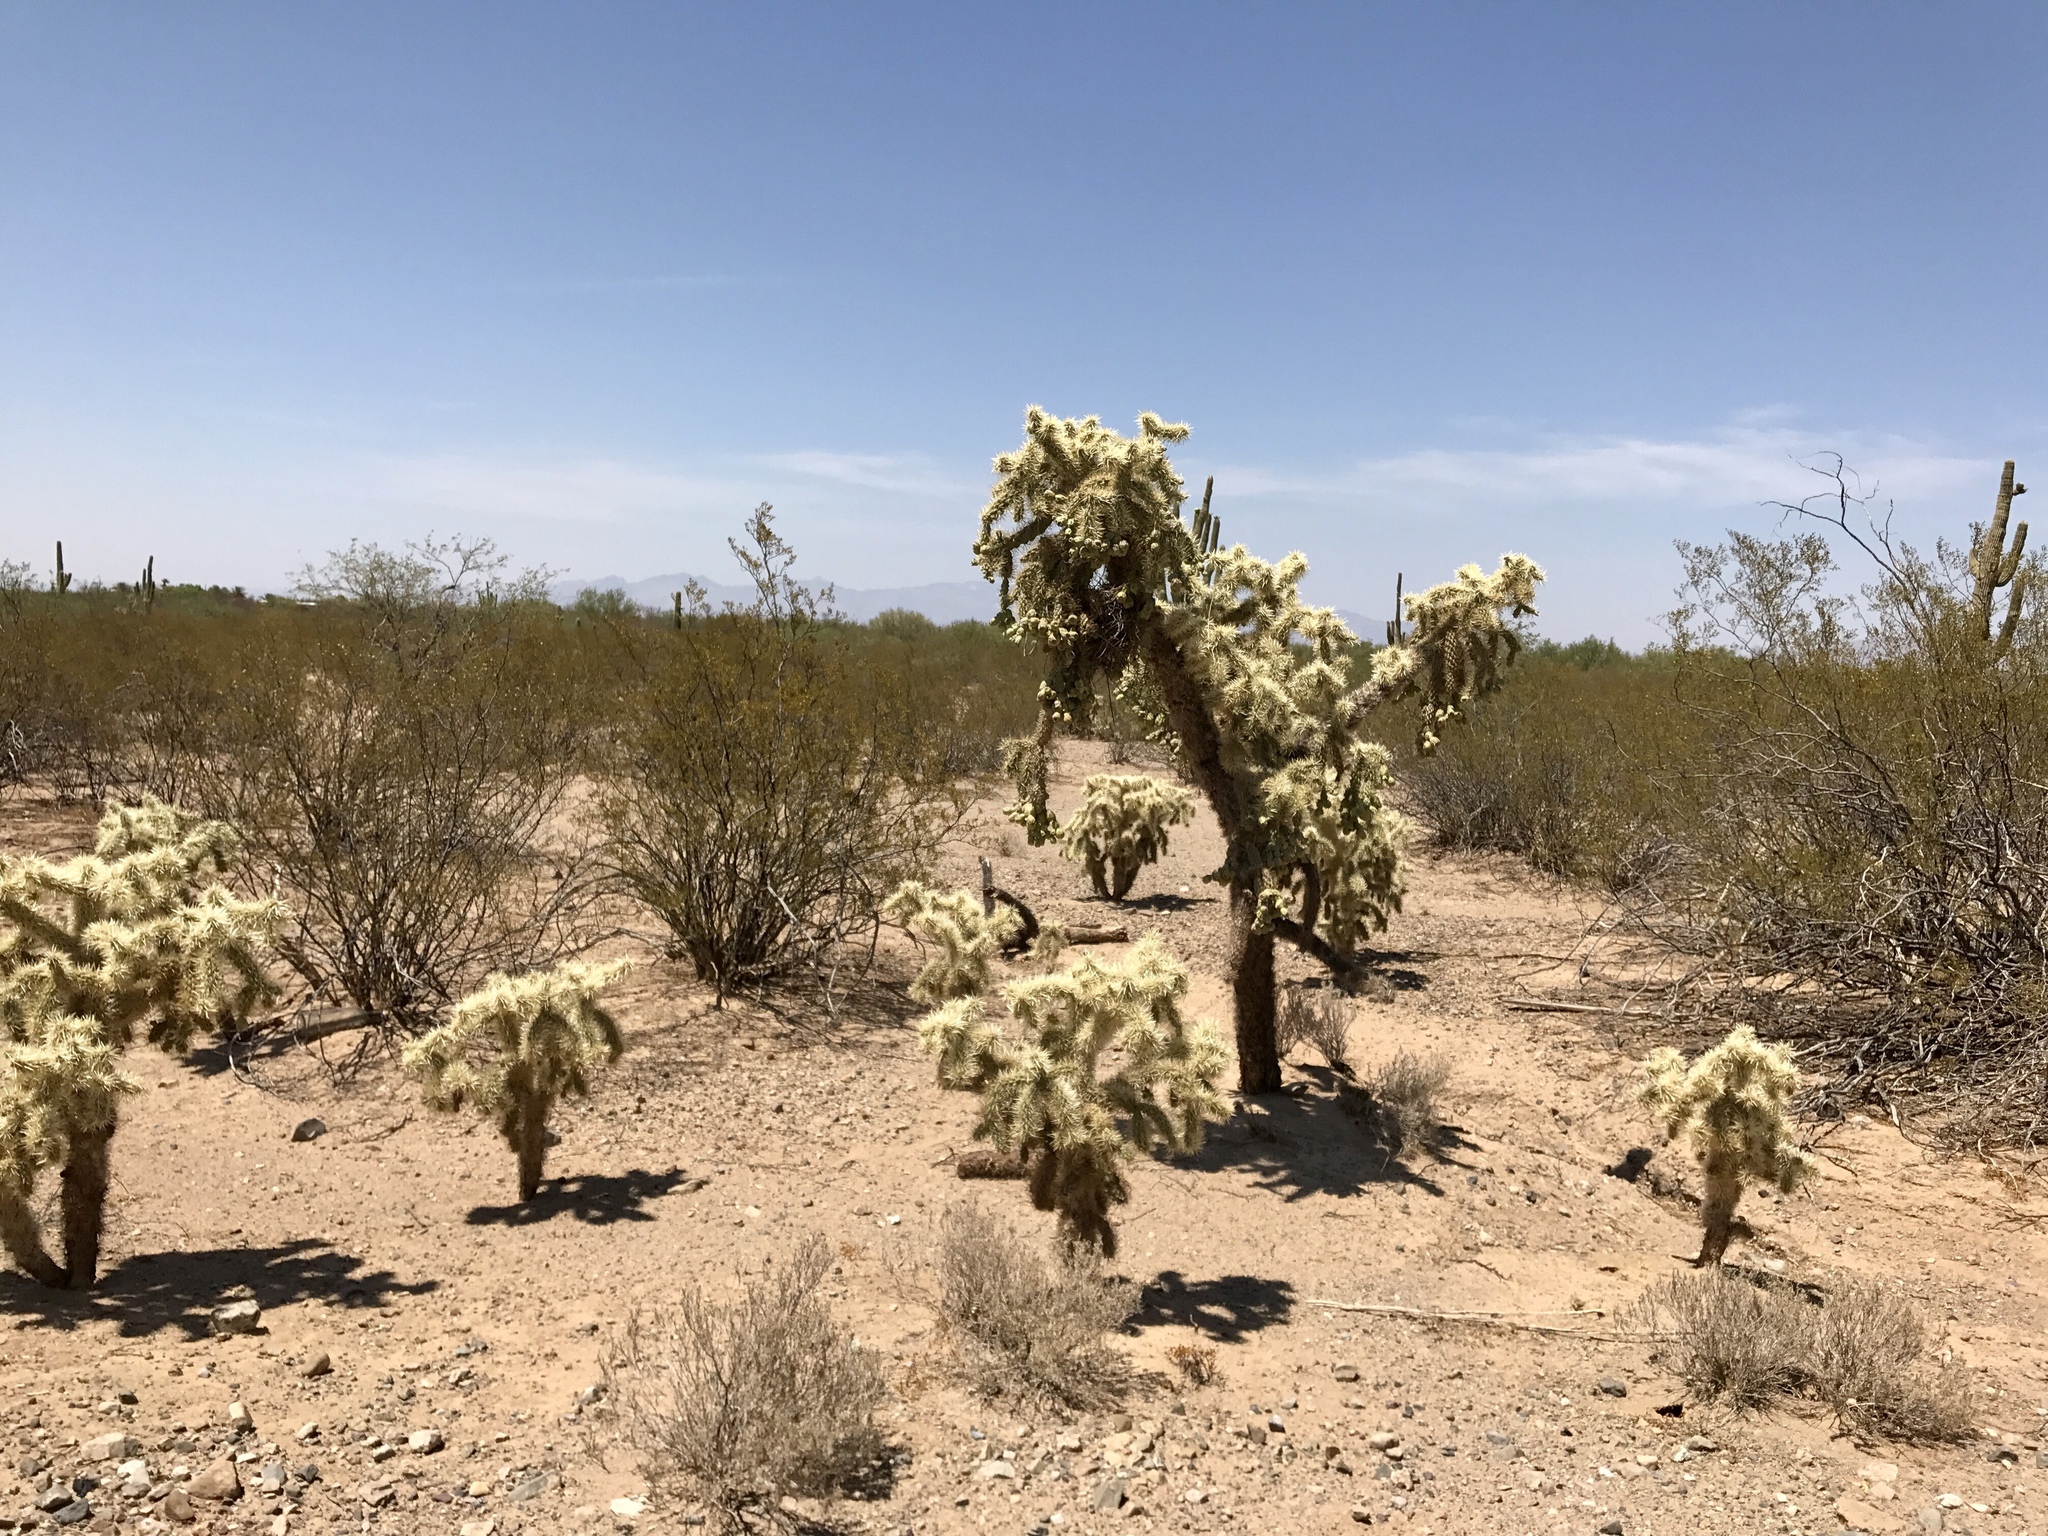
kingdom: Plantae
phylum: Tracheophyta
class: Magnoliopsida
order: Caryophyllales
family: Cactaceae
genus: Cylindropuntia
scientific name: Cylindropuntia fulgida
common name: Jumping cholla
